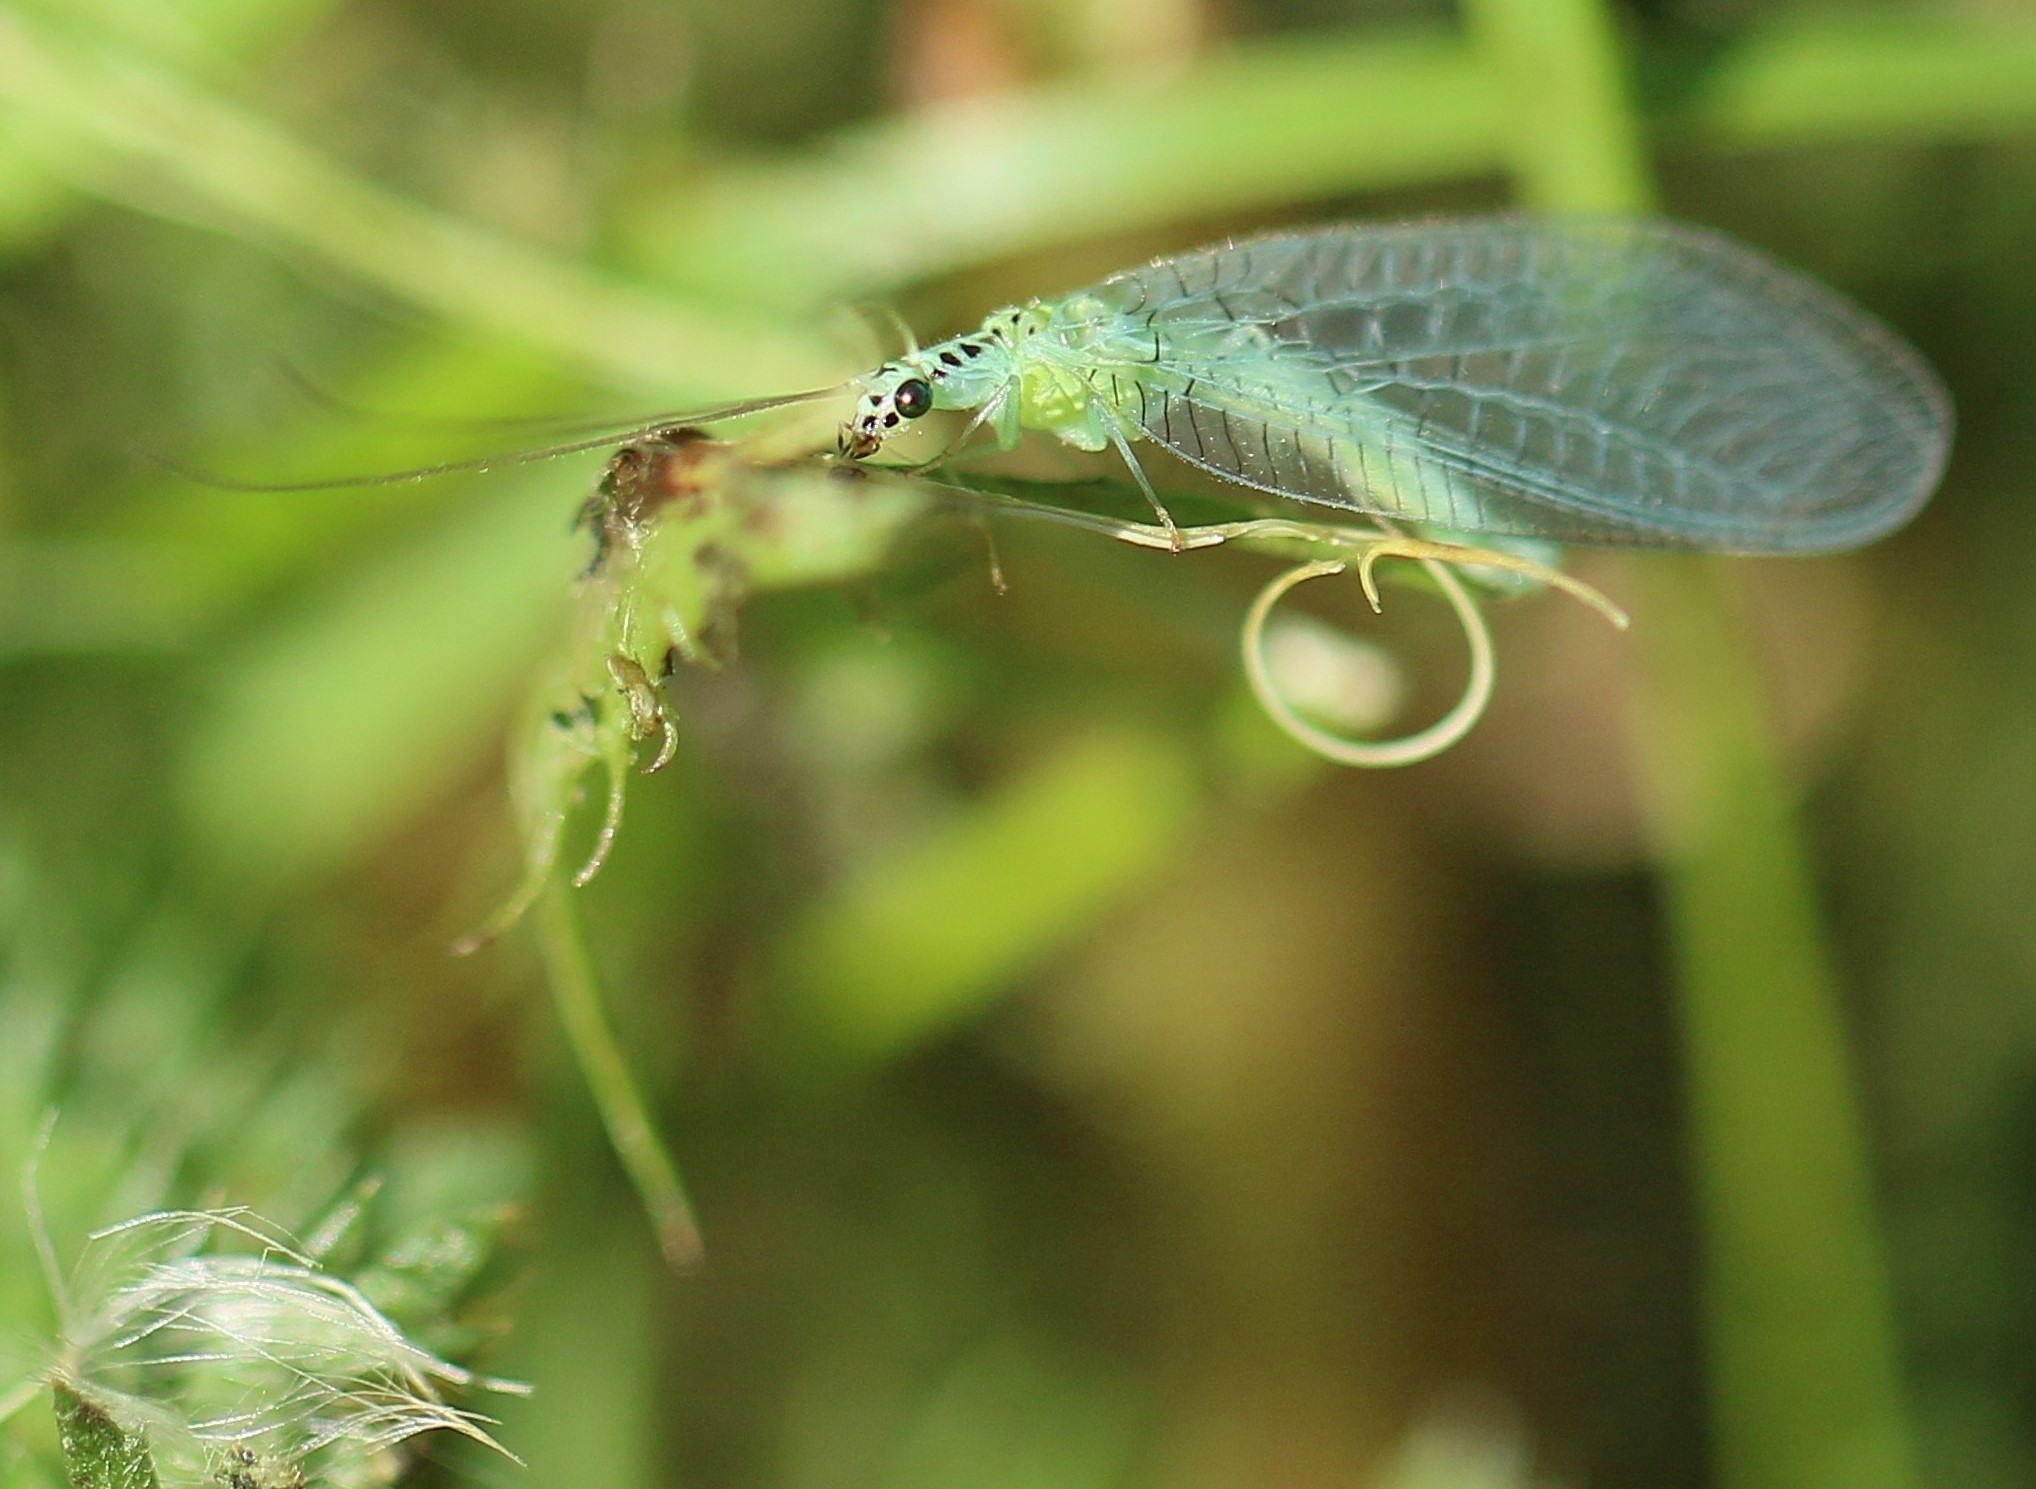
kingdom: Animalia
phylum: Arthropoda
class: Insecta
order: Neuroptera
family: Chrysopidae
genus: Chrysopa
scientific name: Chrysopa chi
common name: X-marked green lacewing
